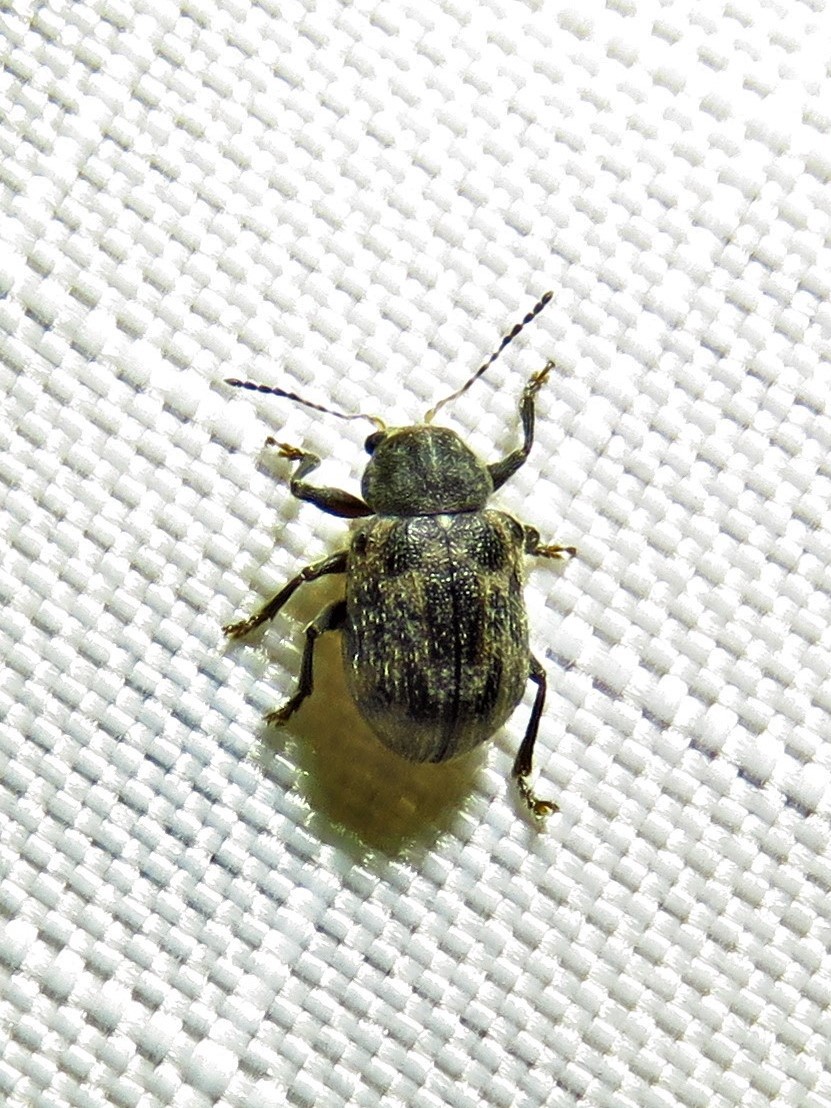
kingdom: Animalia
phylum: Arthropoda
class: Insecta
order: Coleoptera
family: Chrysomelidae
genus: Xanthonia
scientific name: Xanthonia picturata
